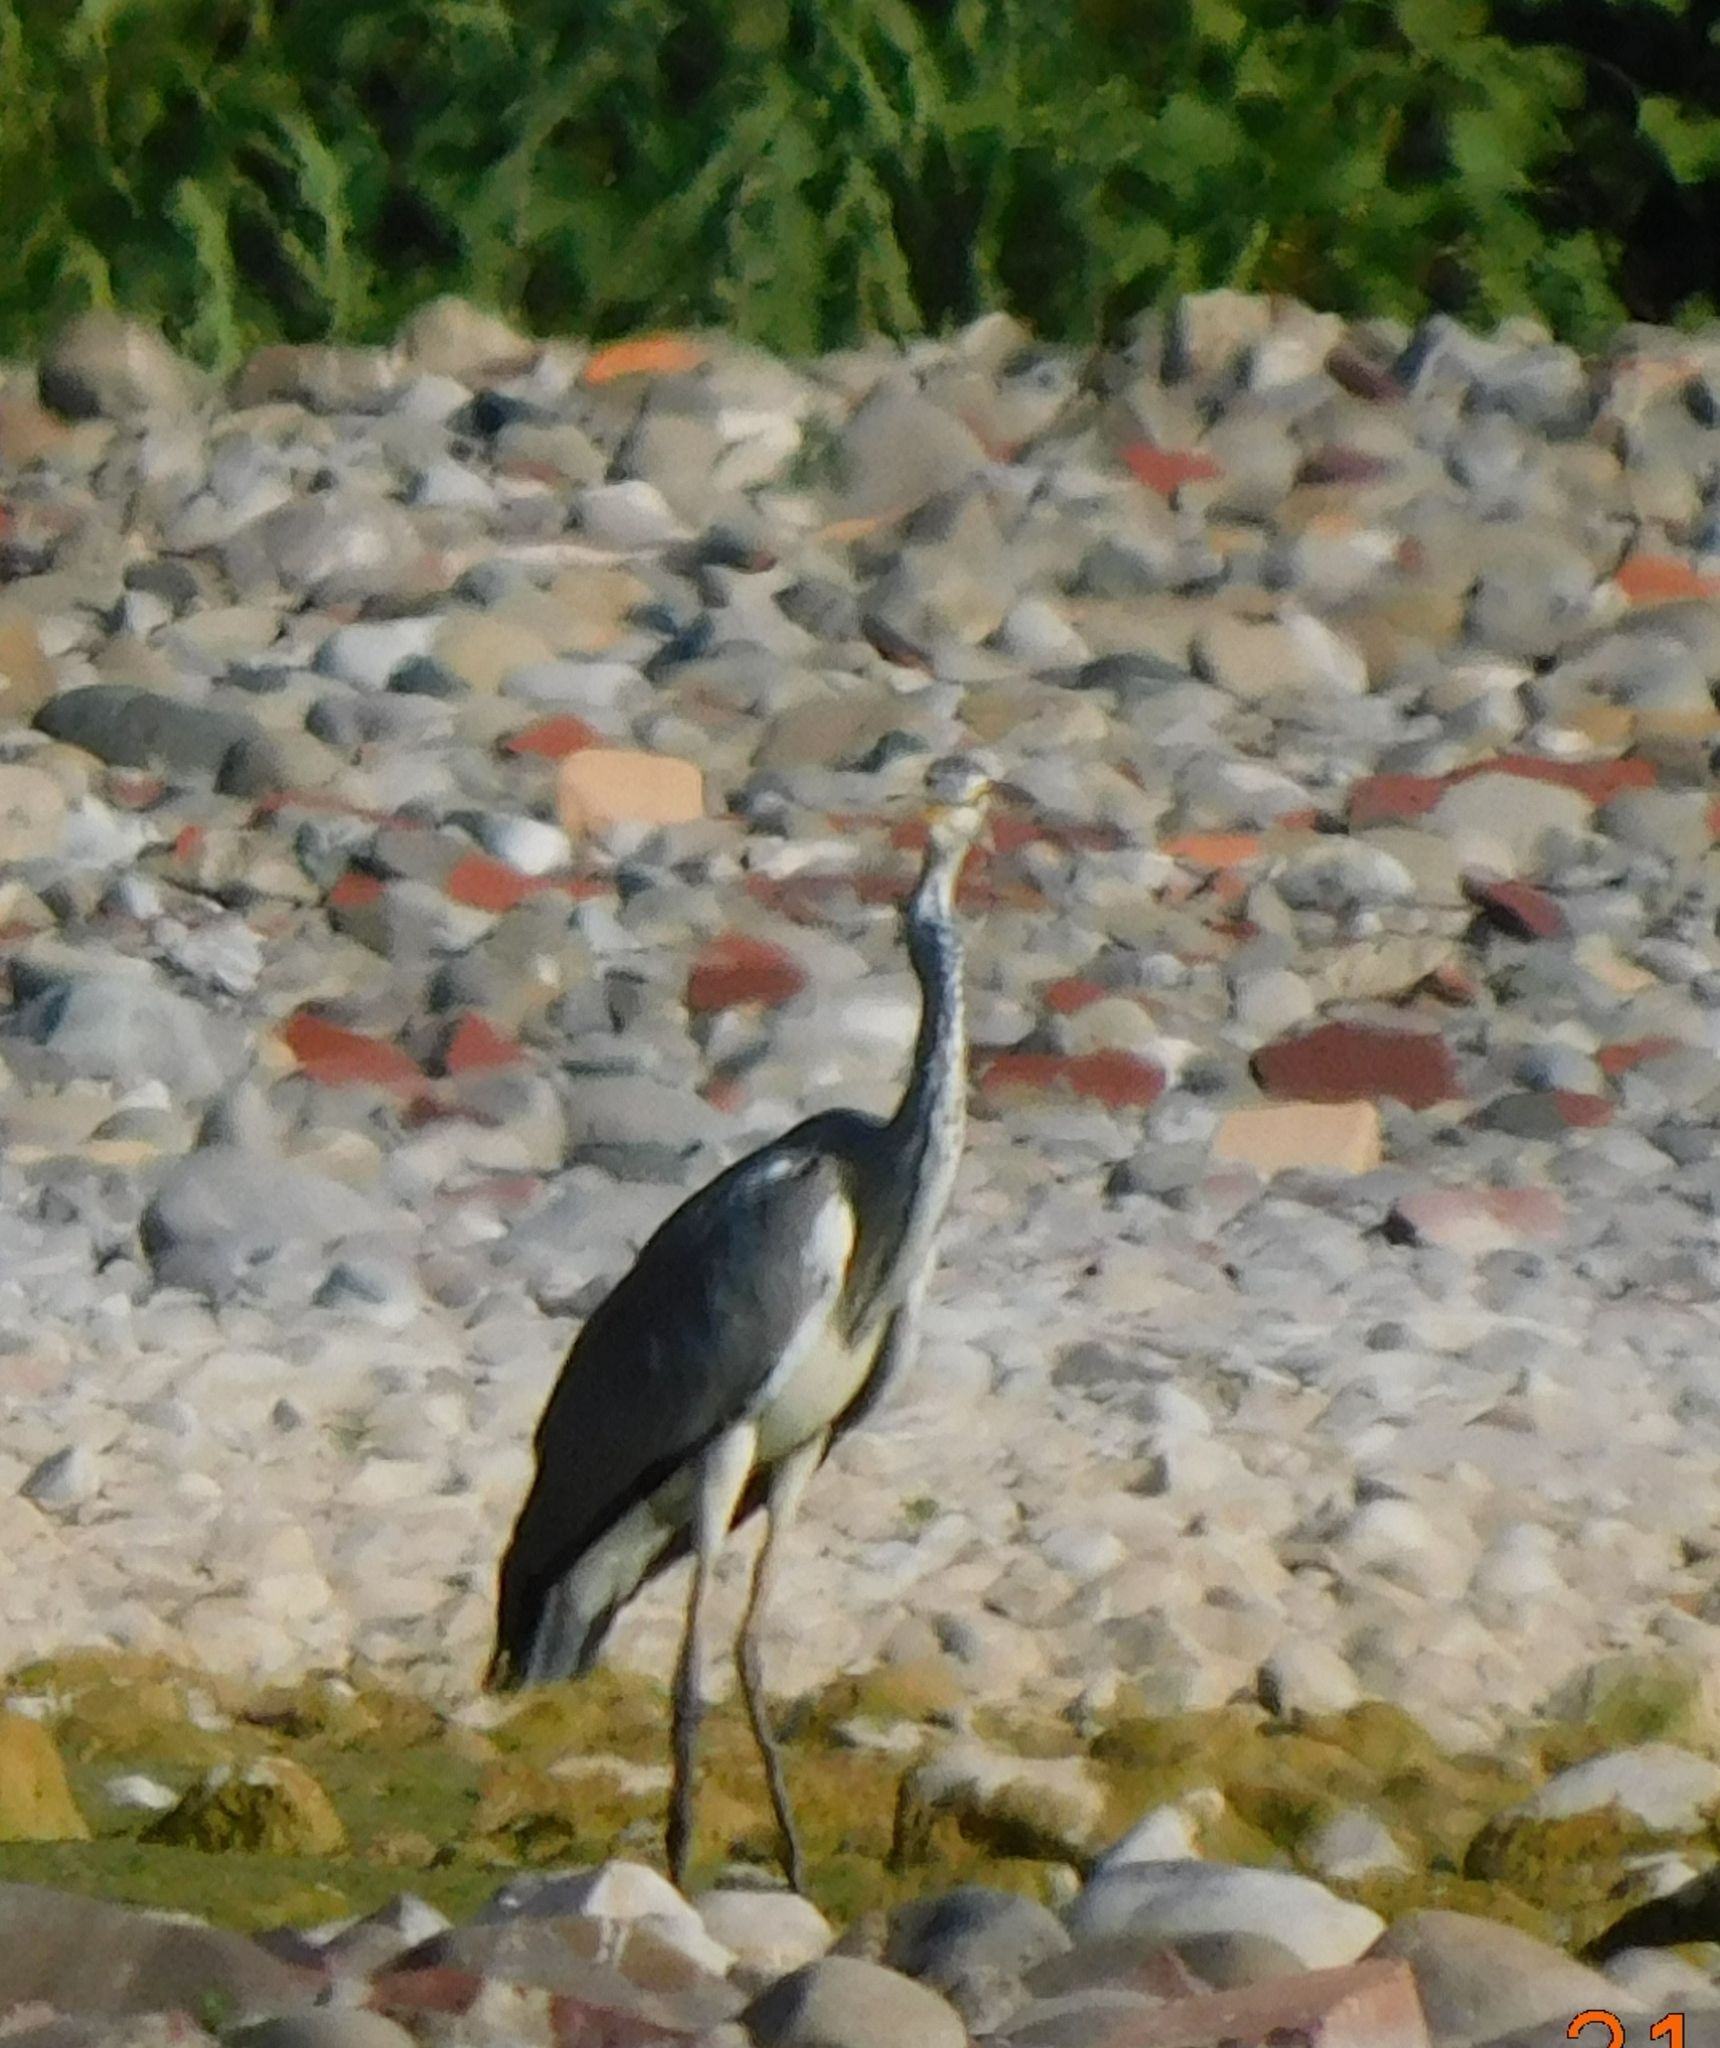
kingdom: Animalia
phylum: Chordata
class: Aves
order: Pelecaniformes
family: Ardeidae
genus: Ardea
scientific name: Ardea cinerea
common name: Grey heron
